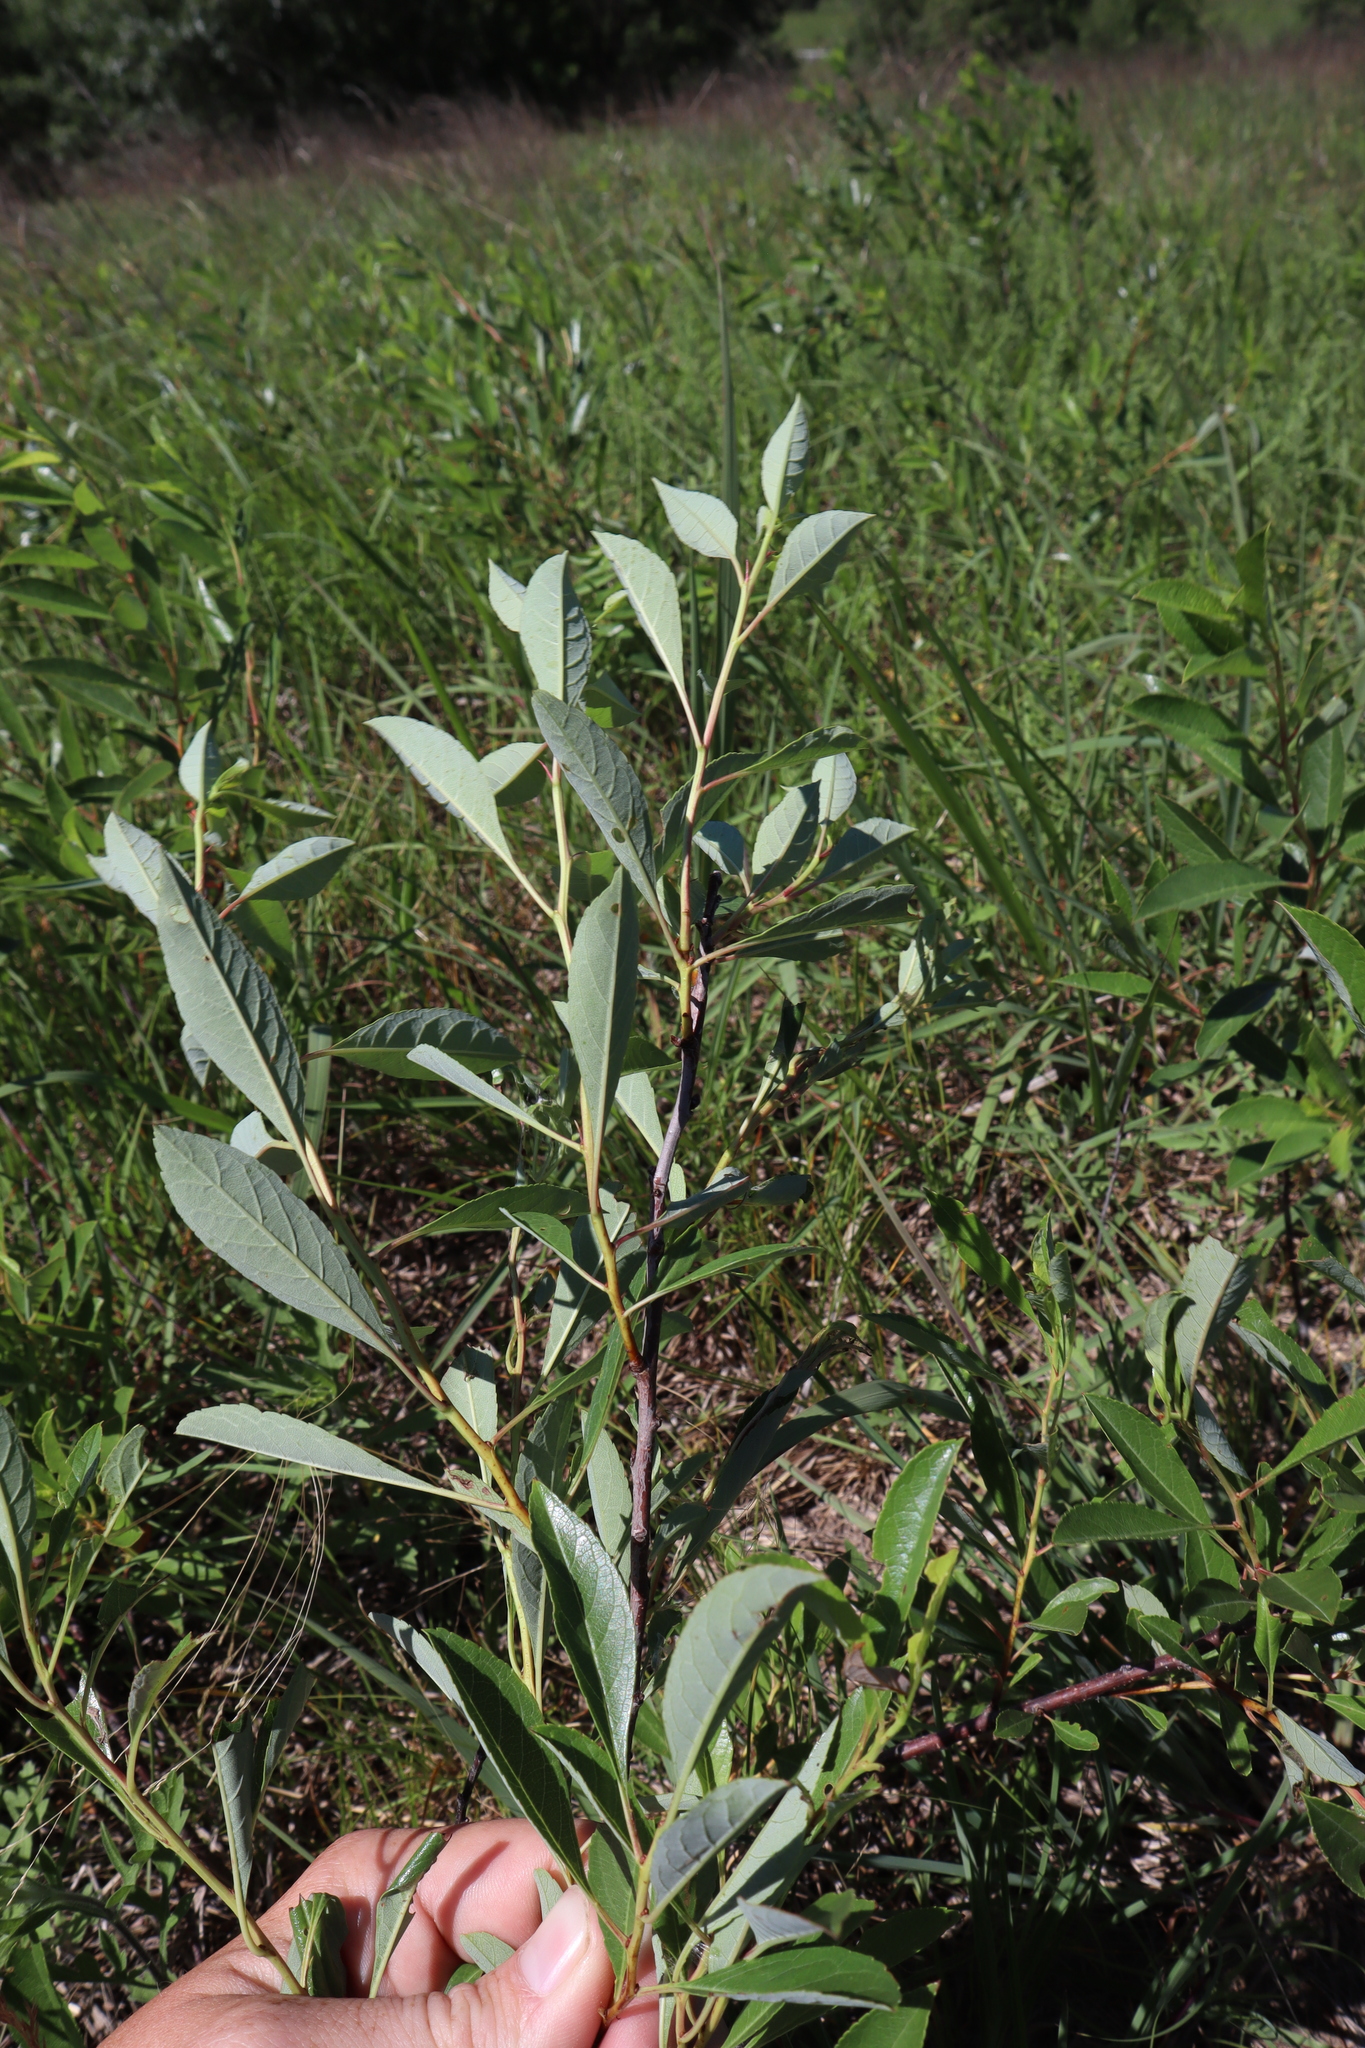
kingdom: Plantae
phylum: Tracheophyta
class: Magnoliopsida
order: Rosales
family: Rosaceae
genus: Prunus
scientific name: Prunus pumila
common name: Dwarf cherry
